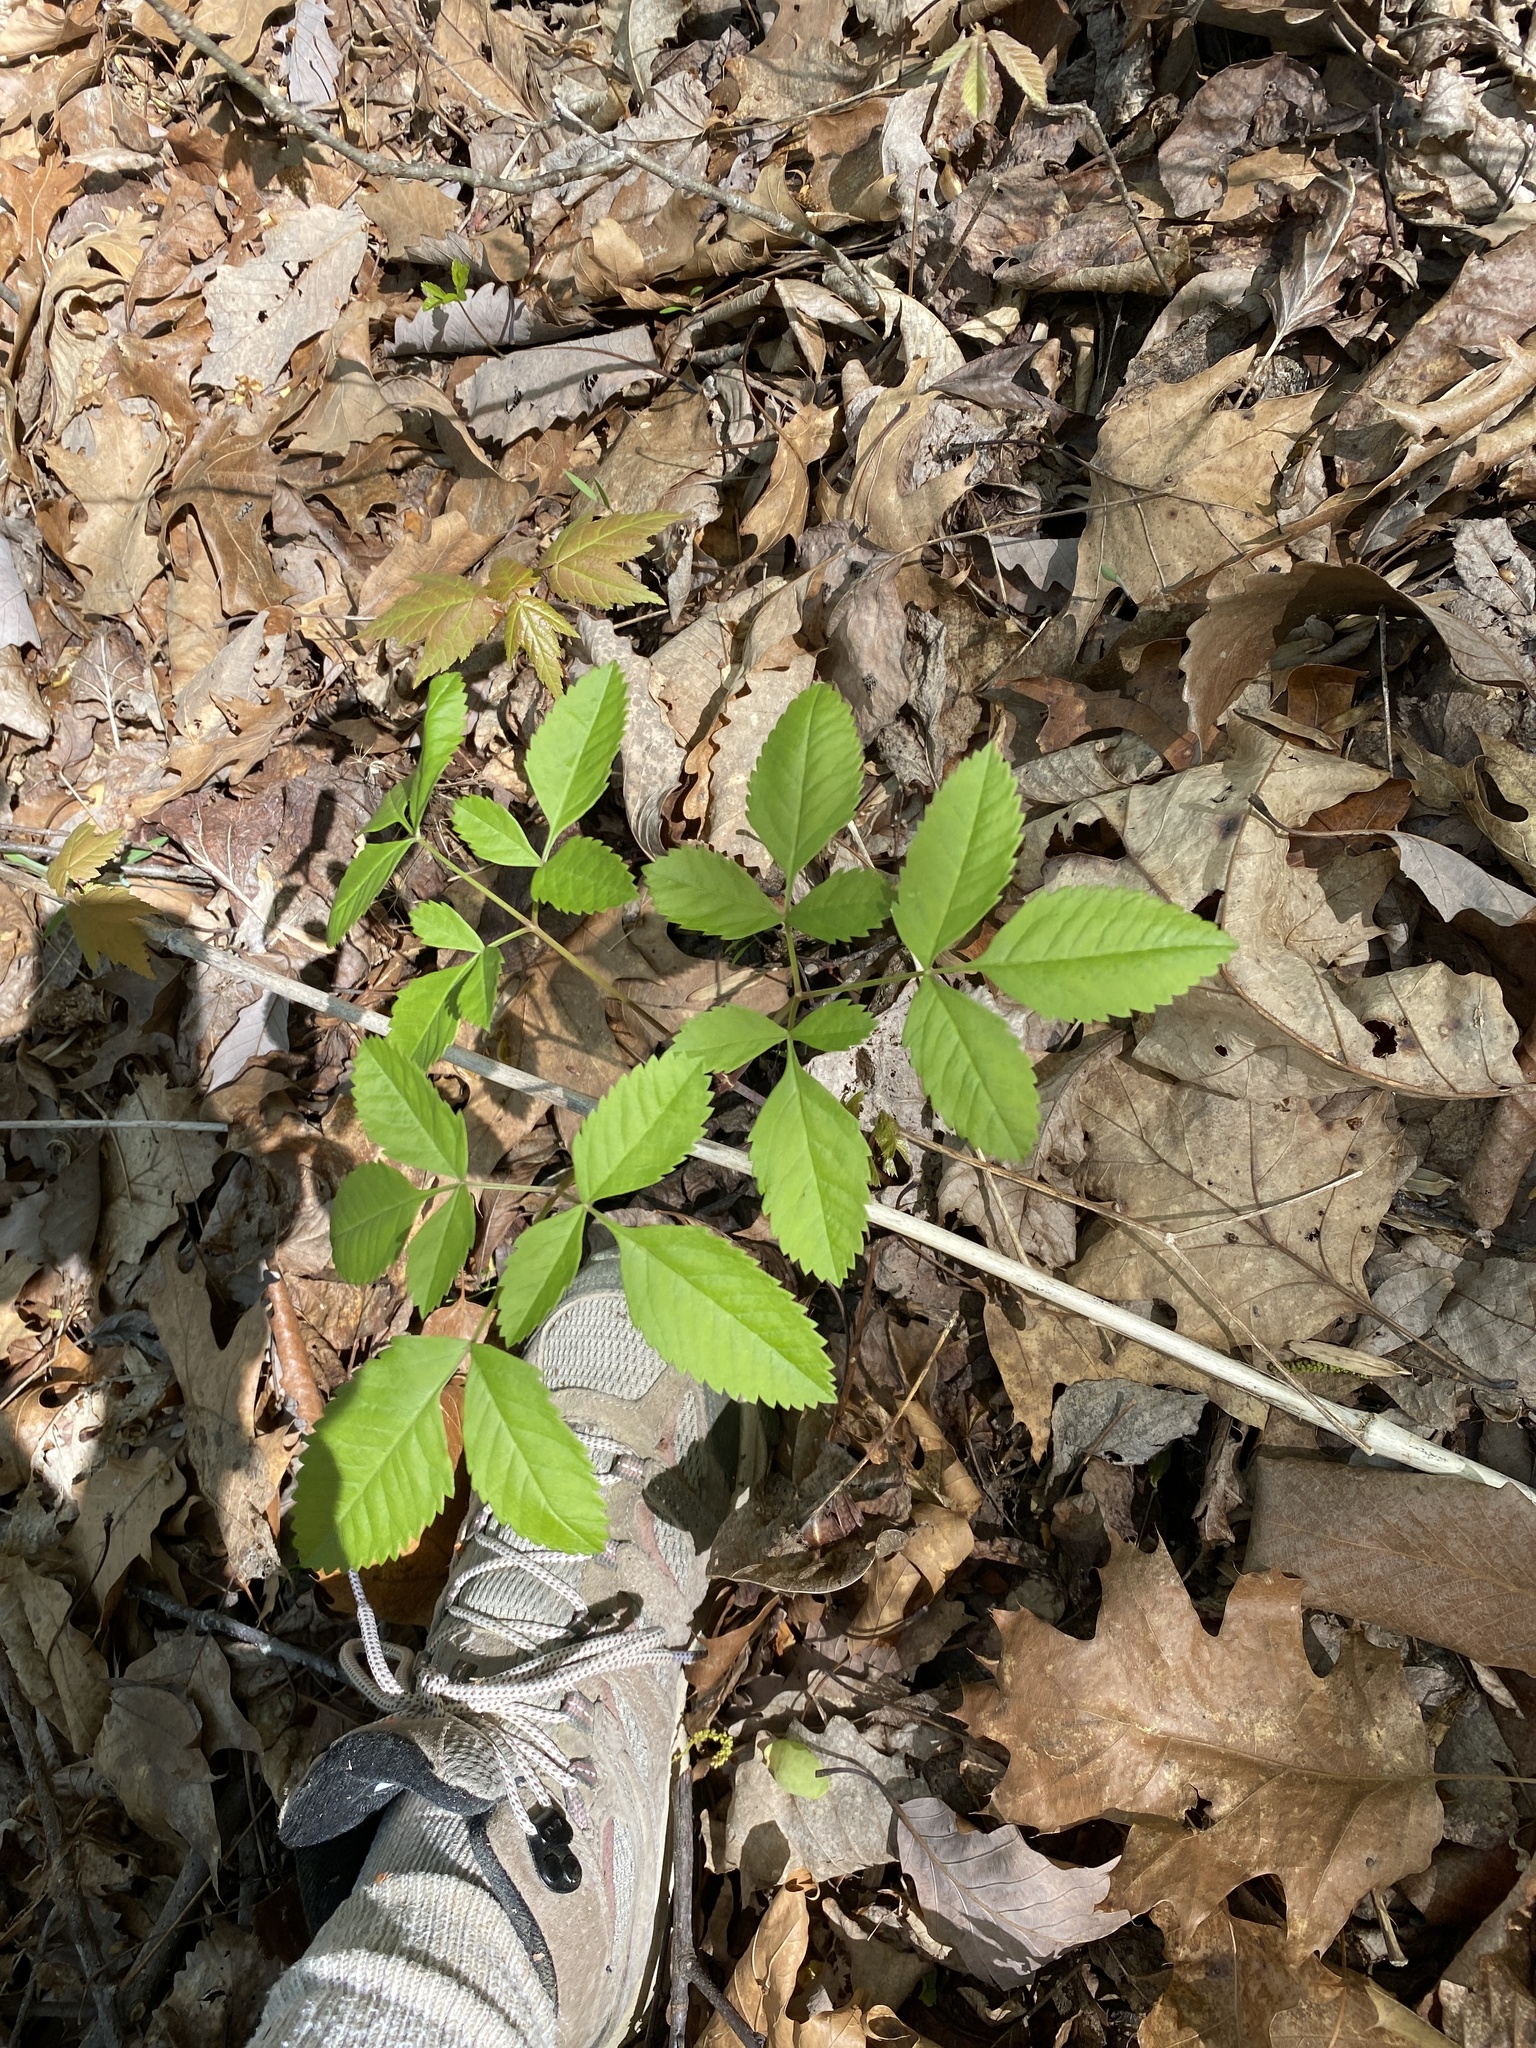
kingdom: Plantae
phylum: Tracheophyta
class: Magnoliopsida
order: Apiales
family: Apiaceae
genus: Ligusticum
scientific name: Ligusticum canadense
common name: American lovage
